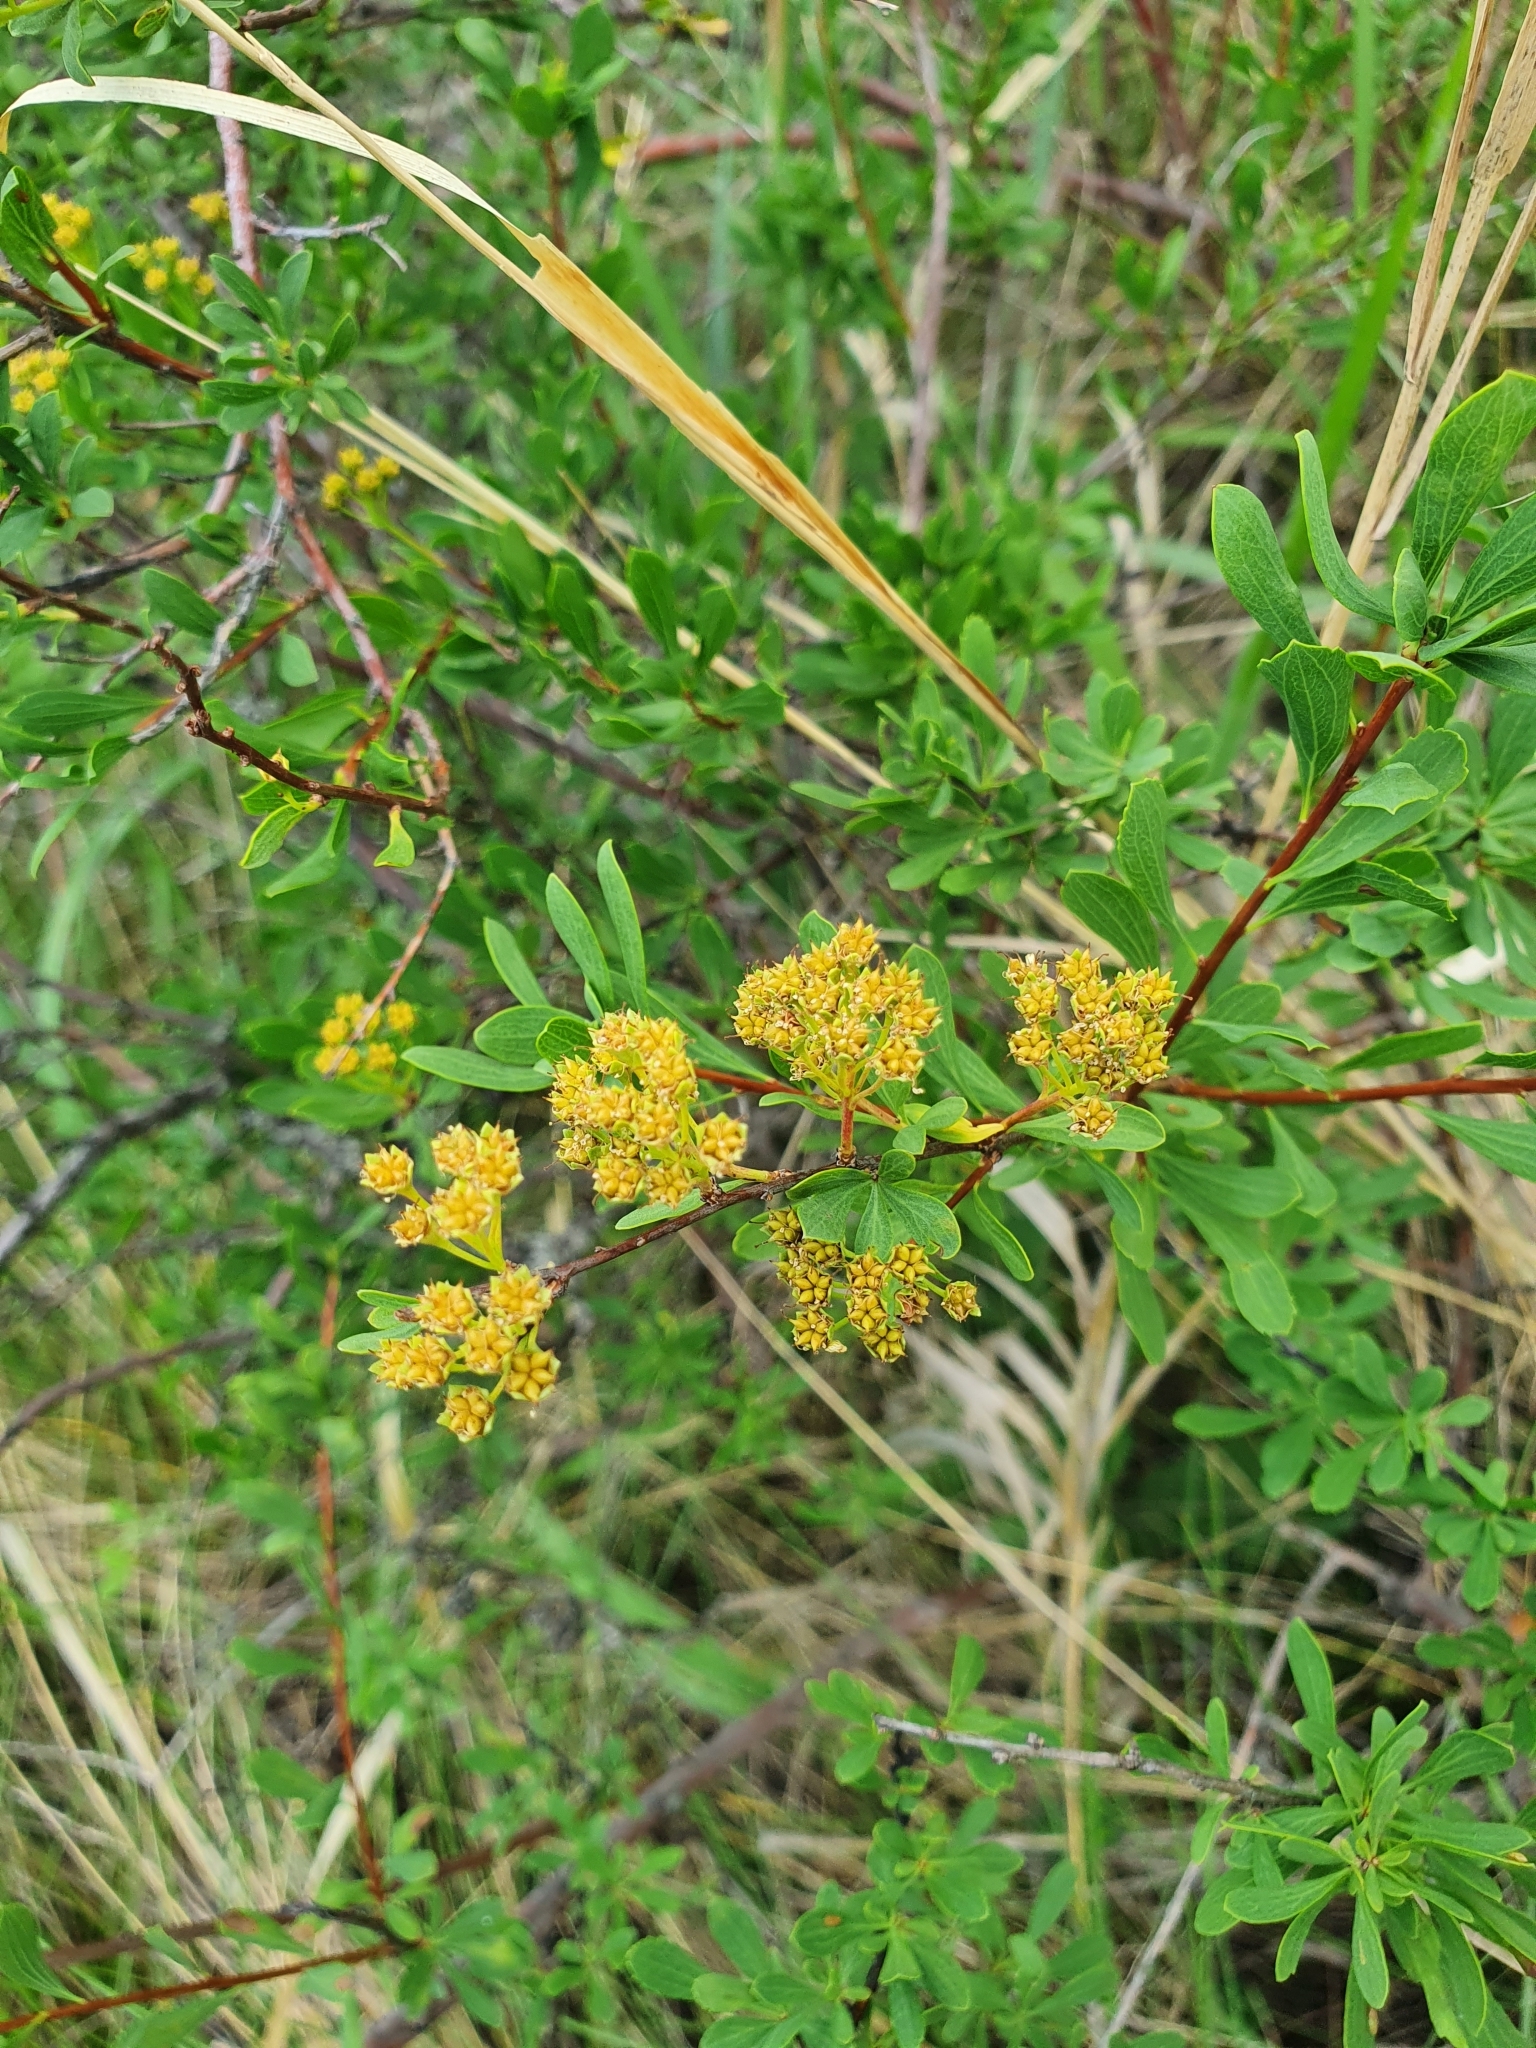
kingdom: Plantae
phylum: Tracheophyta
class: Magnoliopsida
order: Rosales
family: Rosaceae
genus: Spiraea
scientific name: Spiraea crenata
